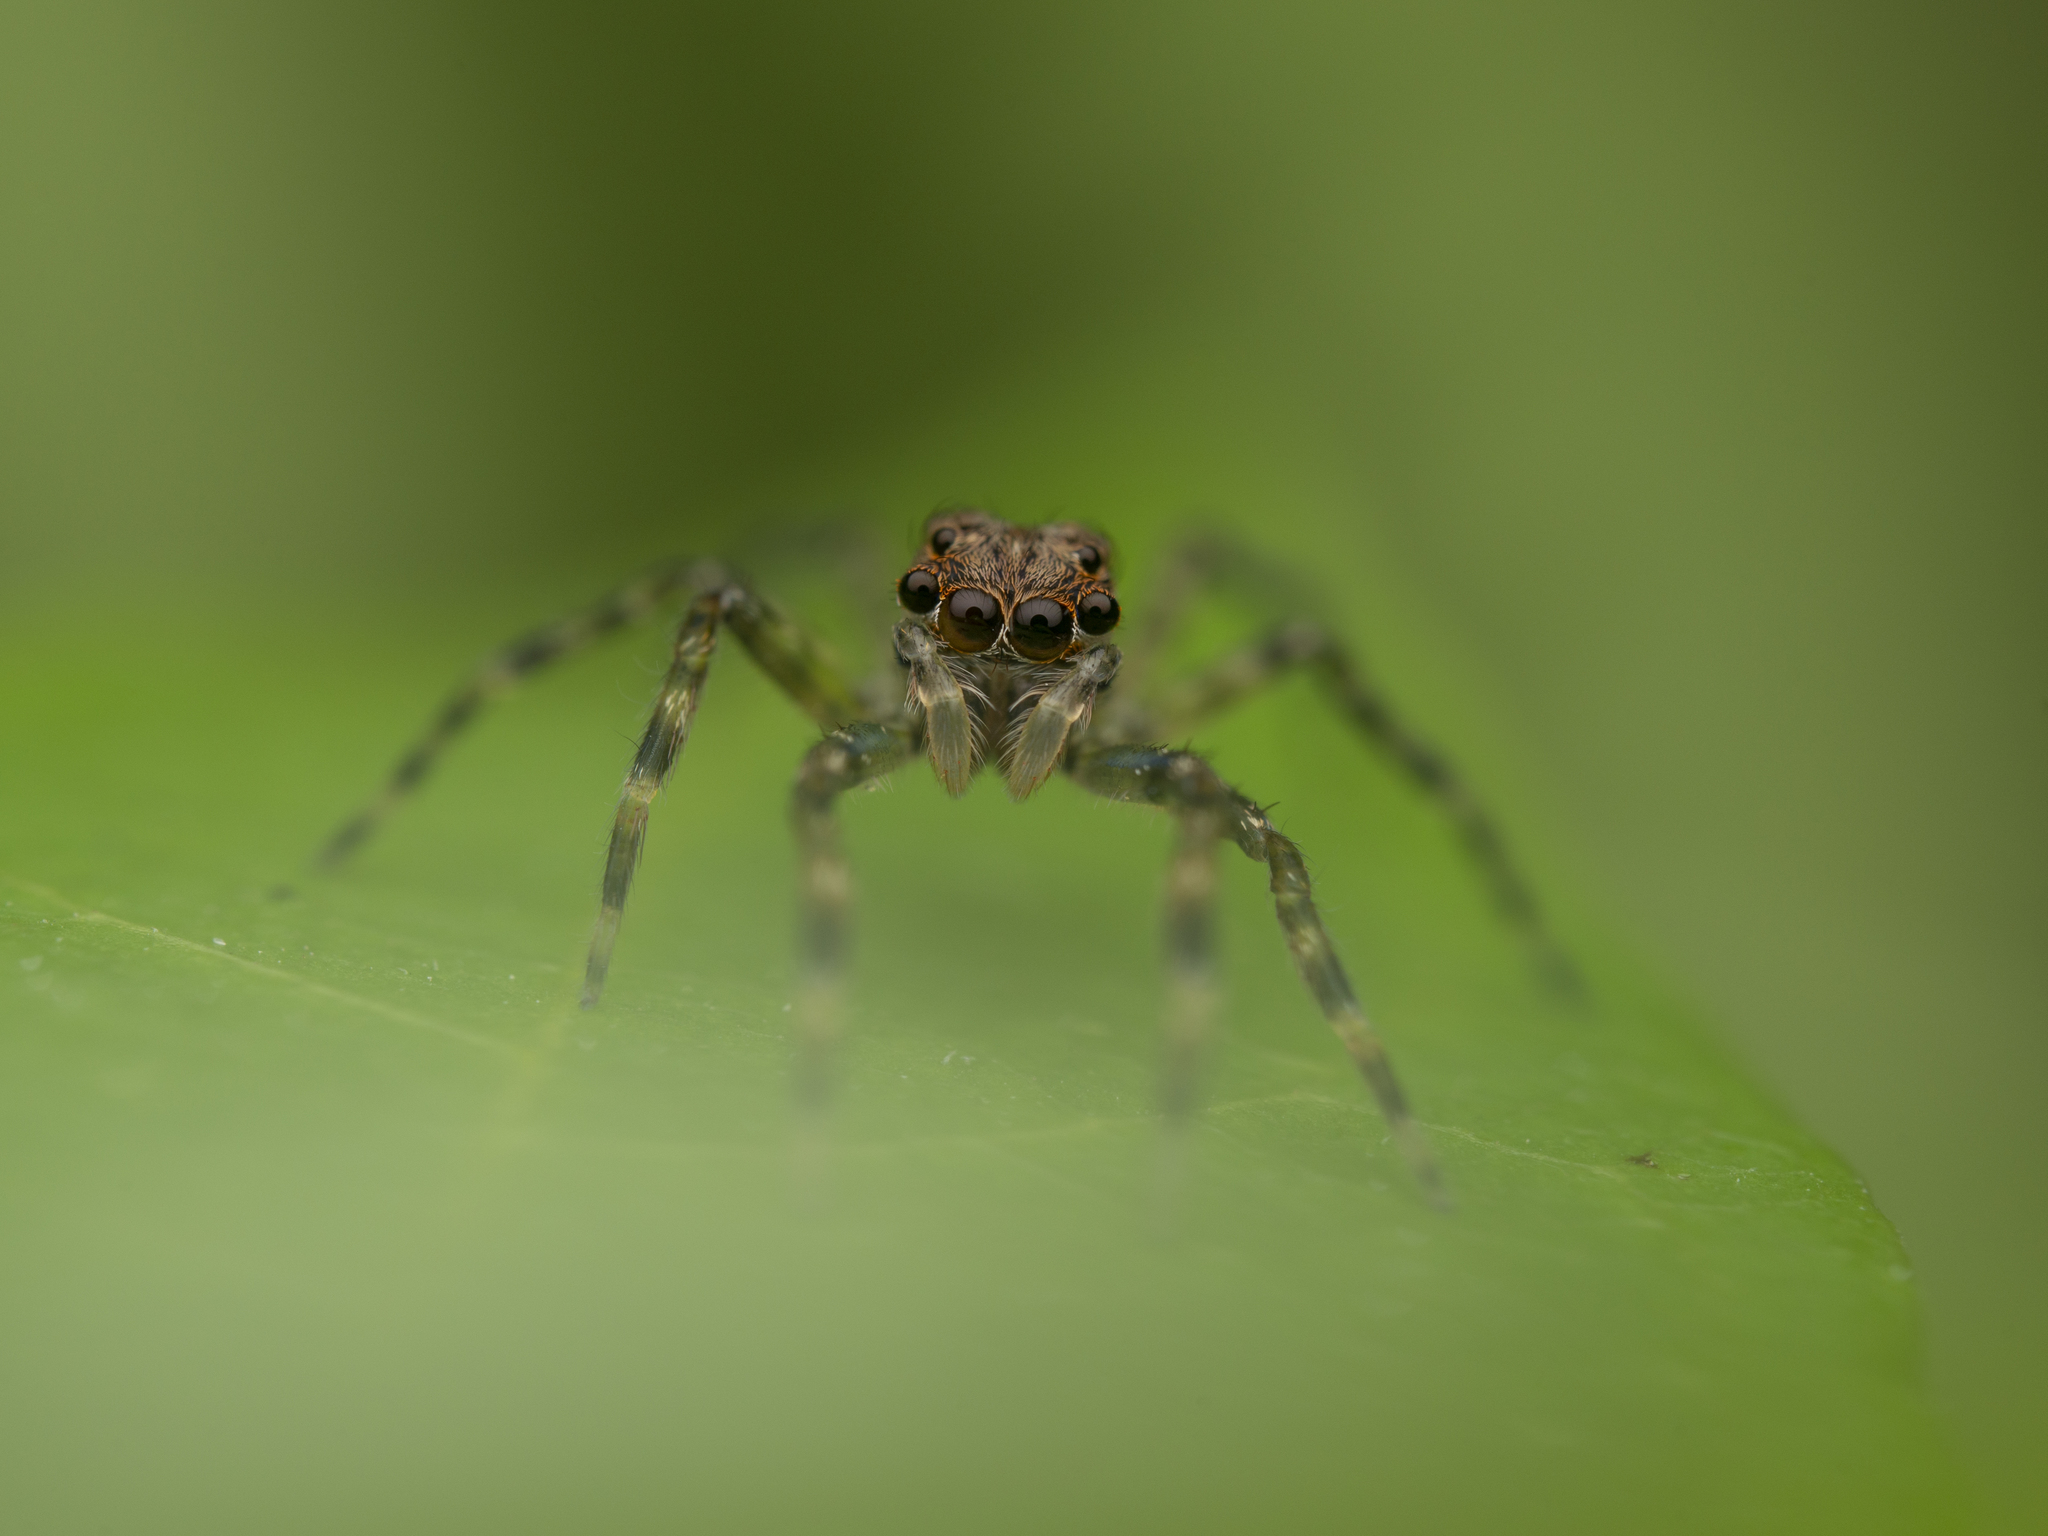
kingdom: Animalia
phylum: Arthropoda
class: Arachnida
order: Araneae
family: Salticidae
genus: Spartaeus
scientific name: Spartaeus zhangi
